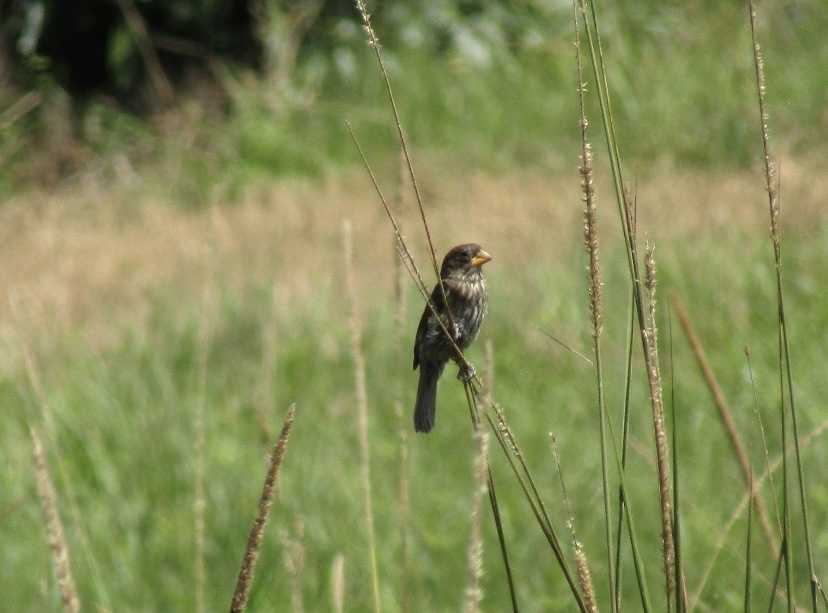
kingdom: Animalia
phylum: Chordata
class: Aves
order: Passeriformes
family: Ploceidae
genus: Amblyospiza
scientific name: Amblyospiza albifrons
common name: Thick-billed weaver
